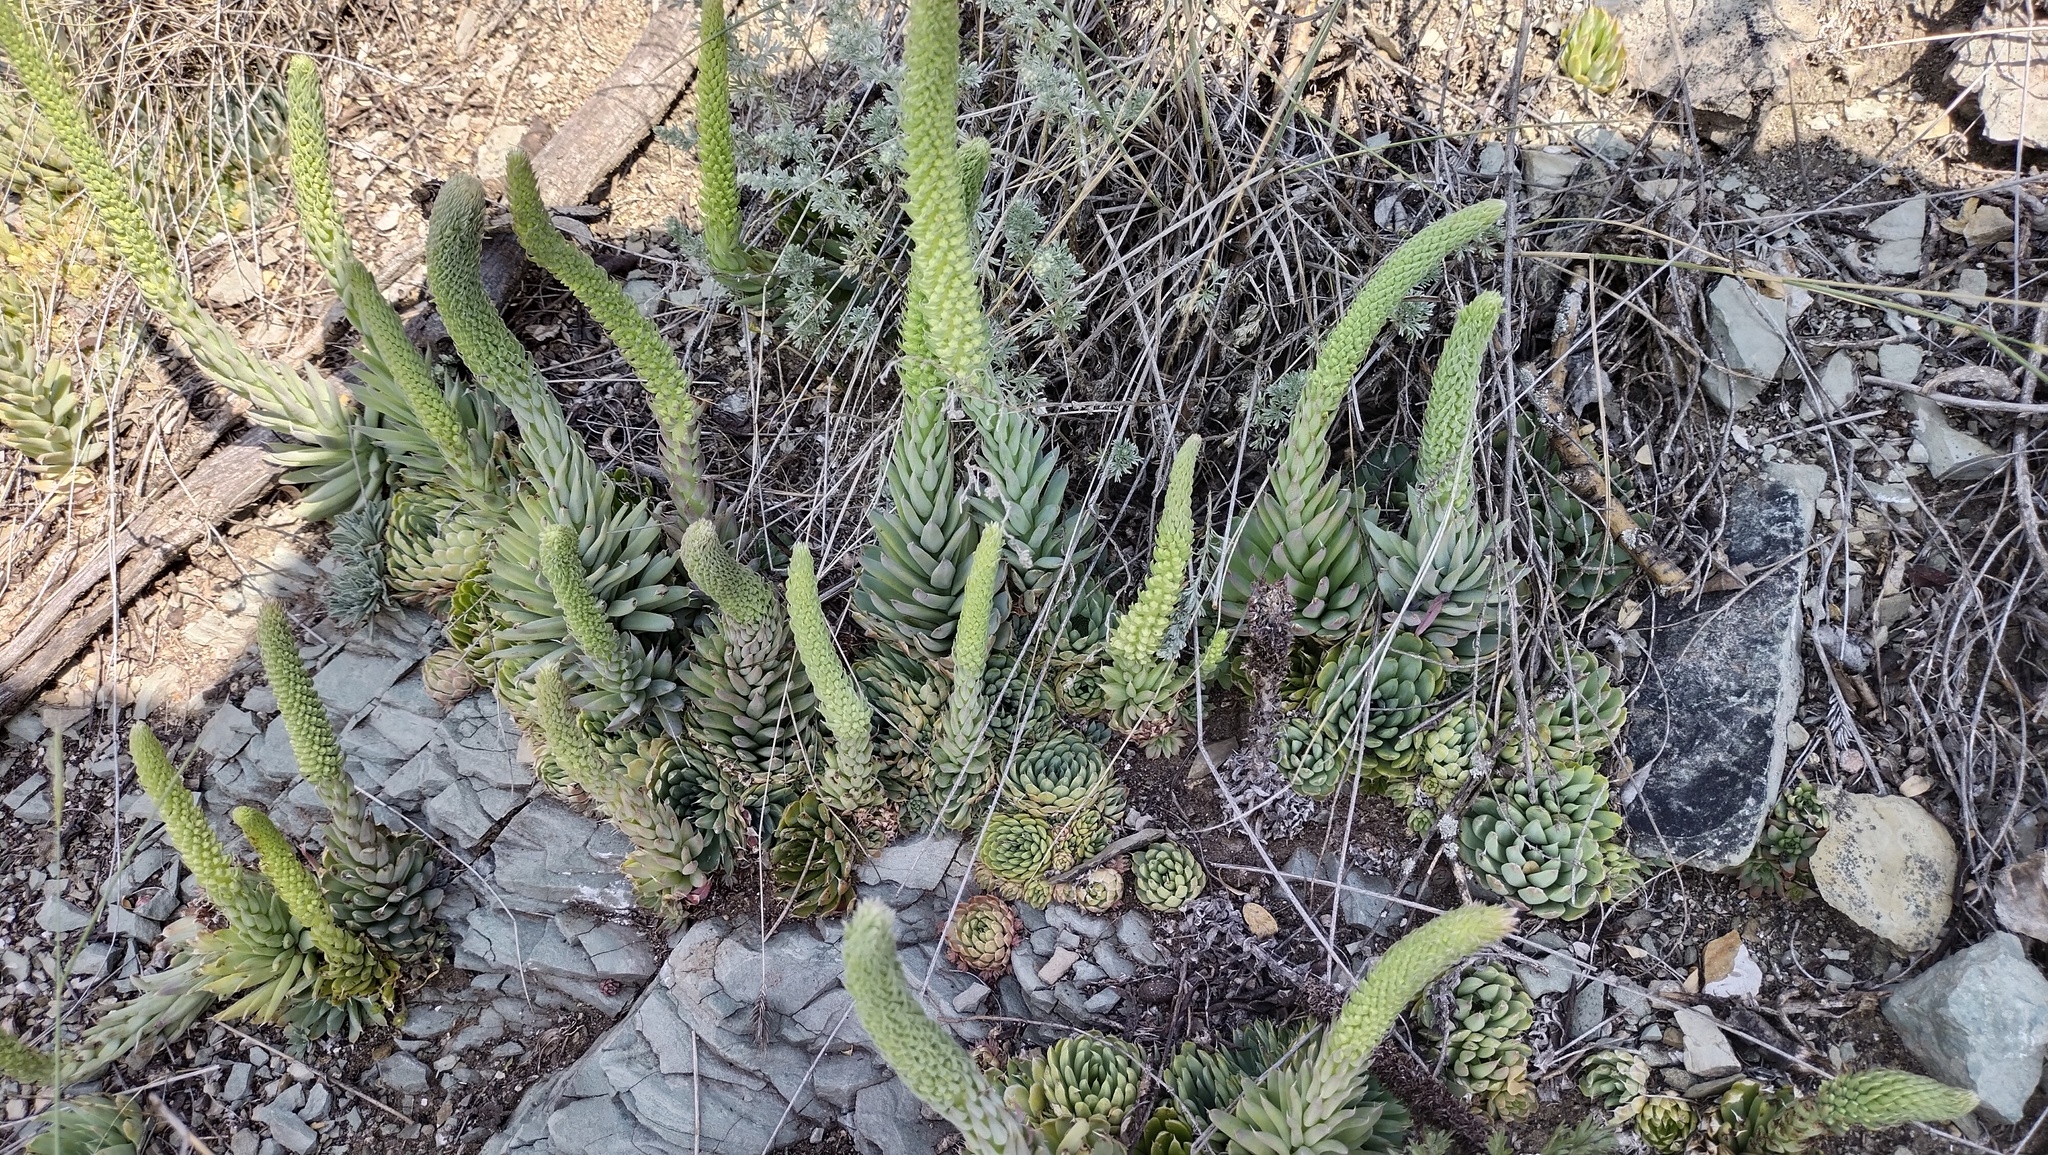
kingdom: Plantae
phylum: Tracheophyta
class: Magnoliopsida
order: Saxifragales
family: Crassulaceae
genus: Orostachys
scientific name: Orostachys spinosa
